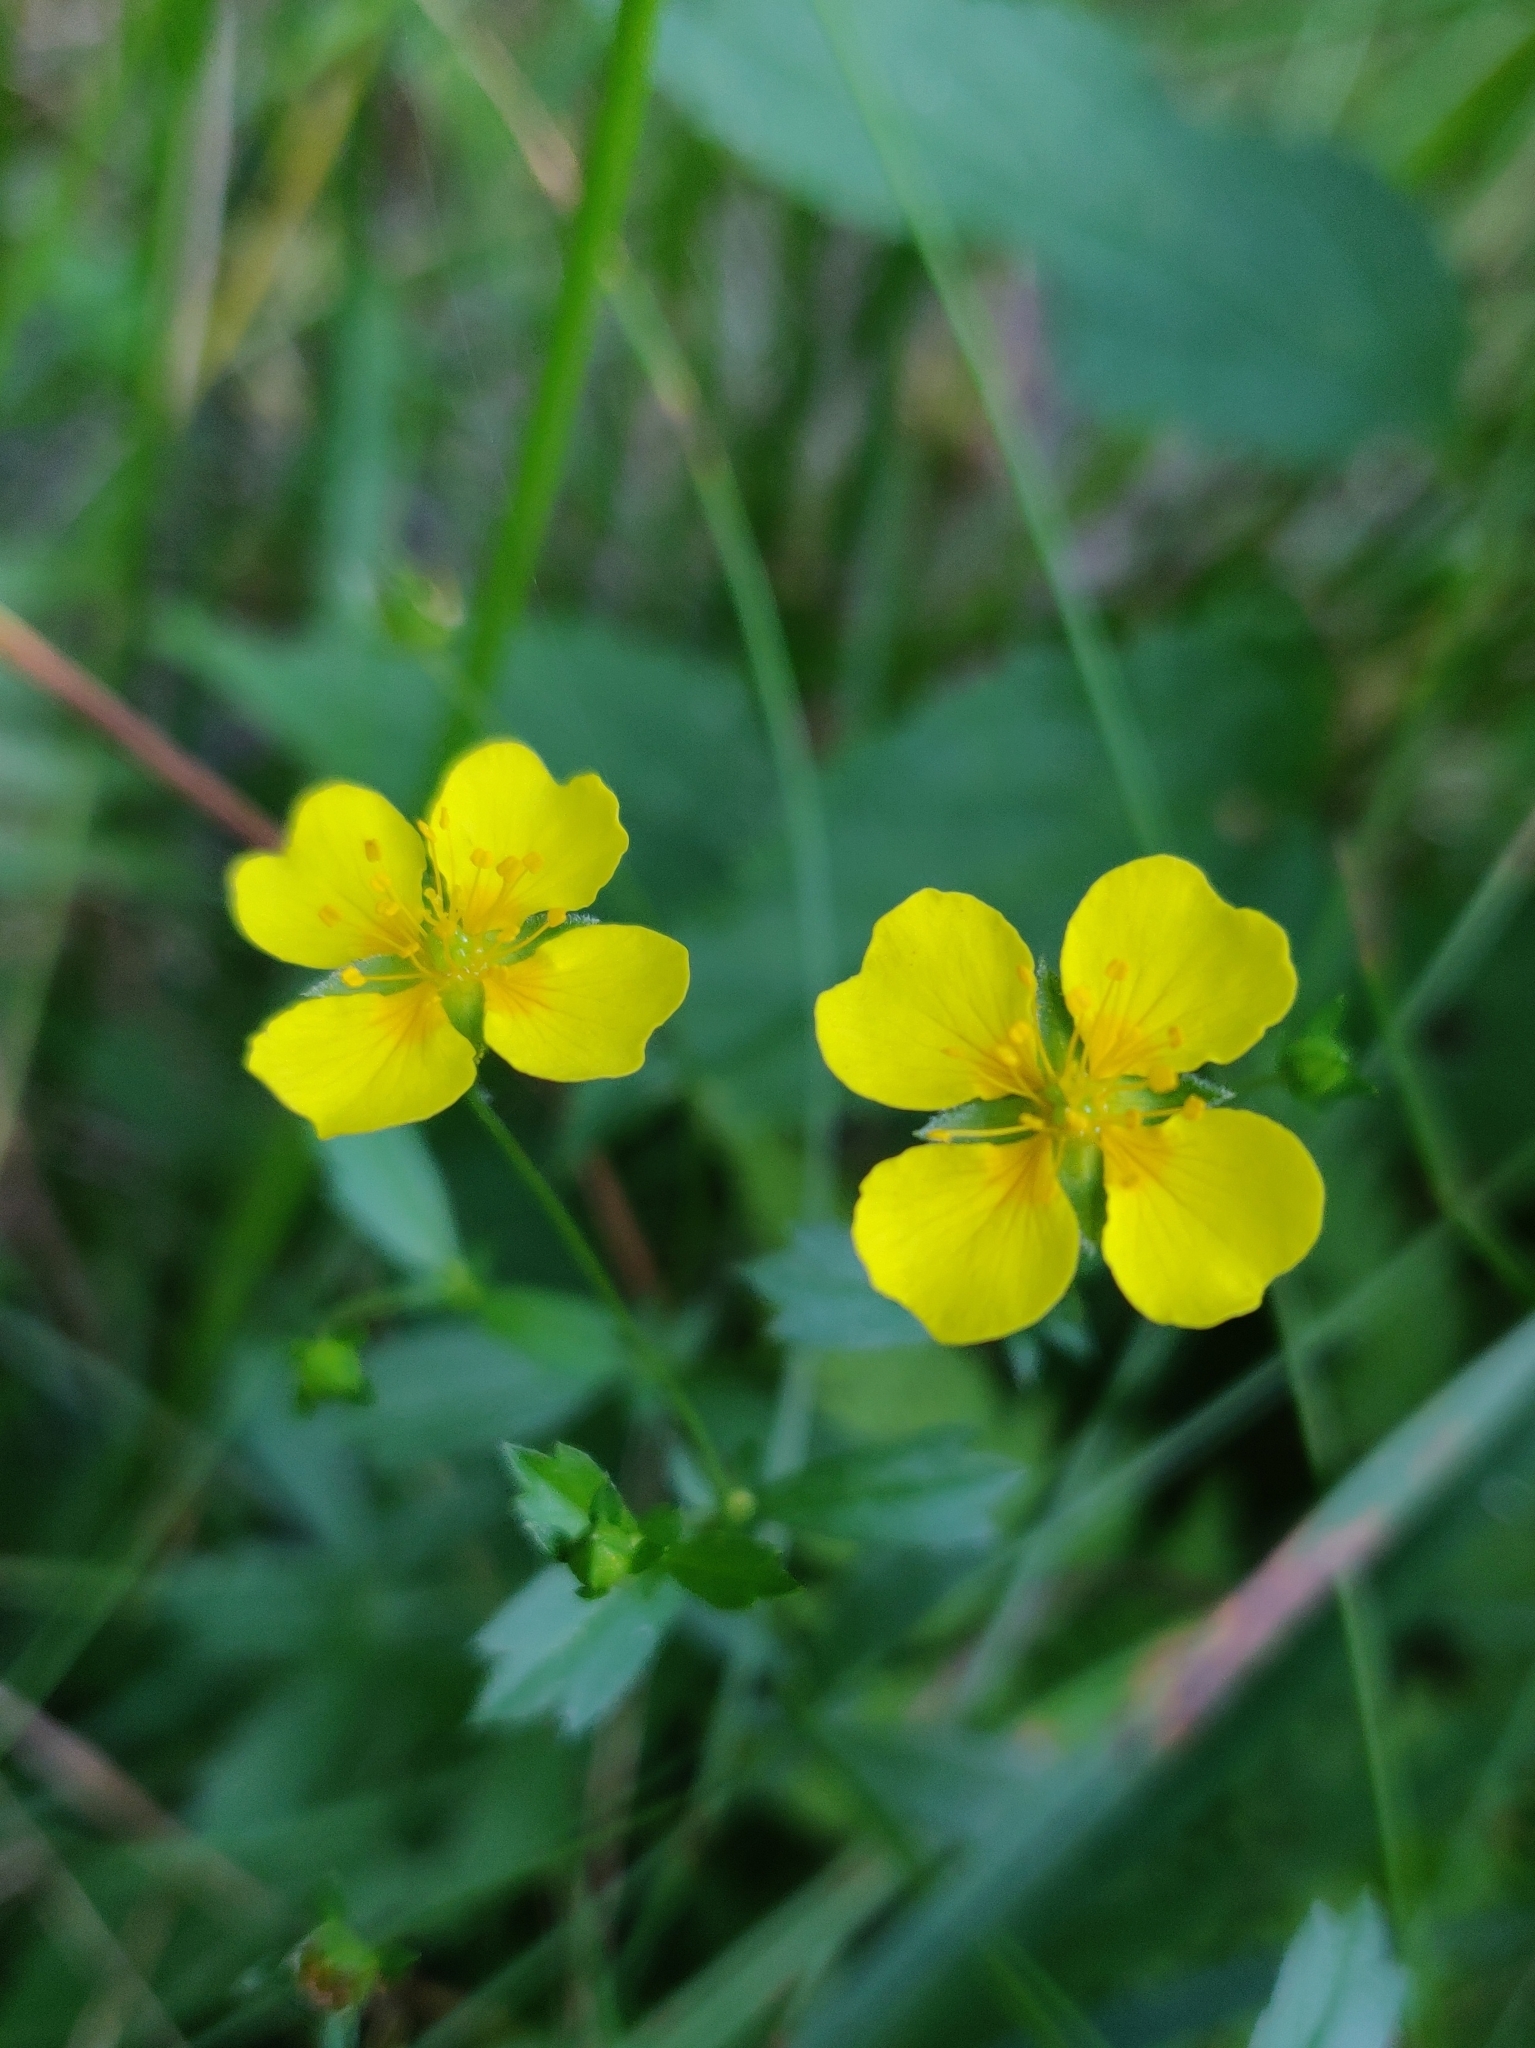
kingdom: Plantae
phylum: Tracheophyta
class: Magnoliopsida
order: Rosales
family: Rosaceae
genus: Potentilla
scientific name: Potentilla erecta
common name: Tormentil
